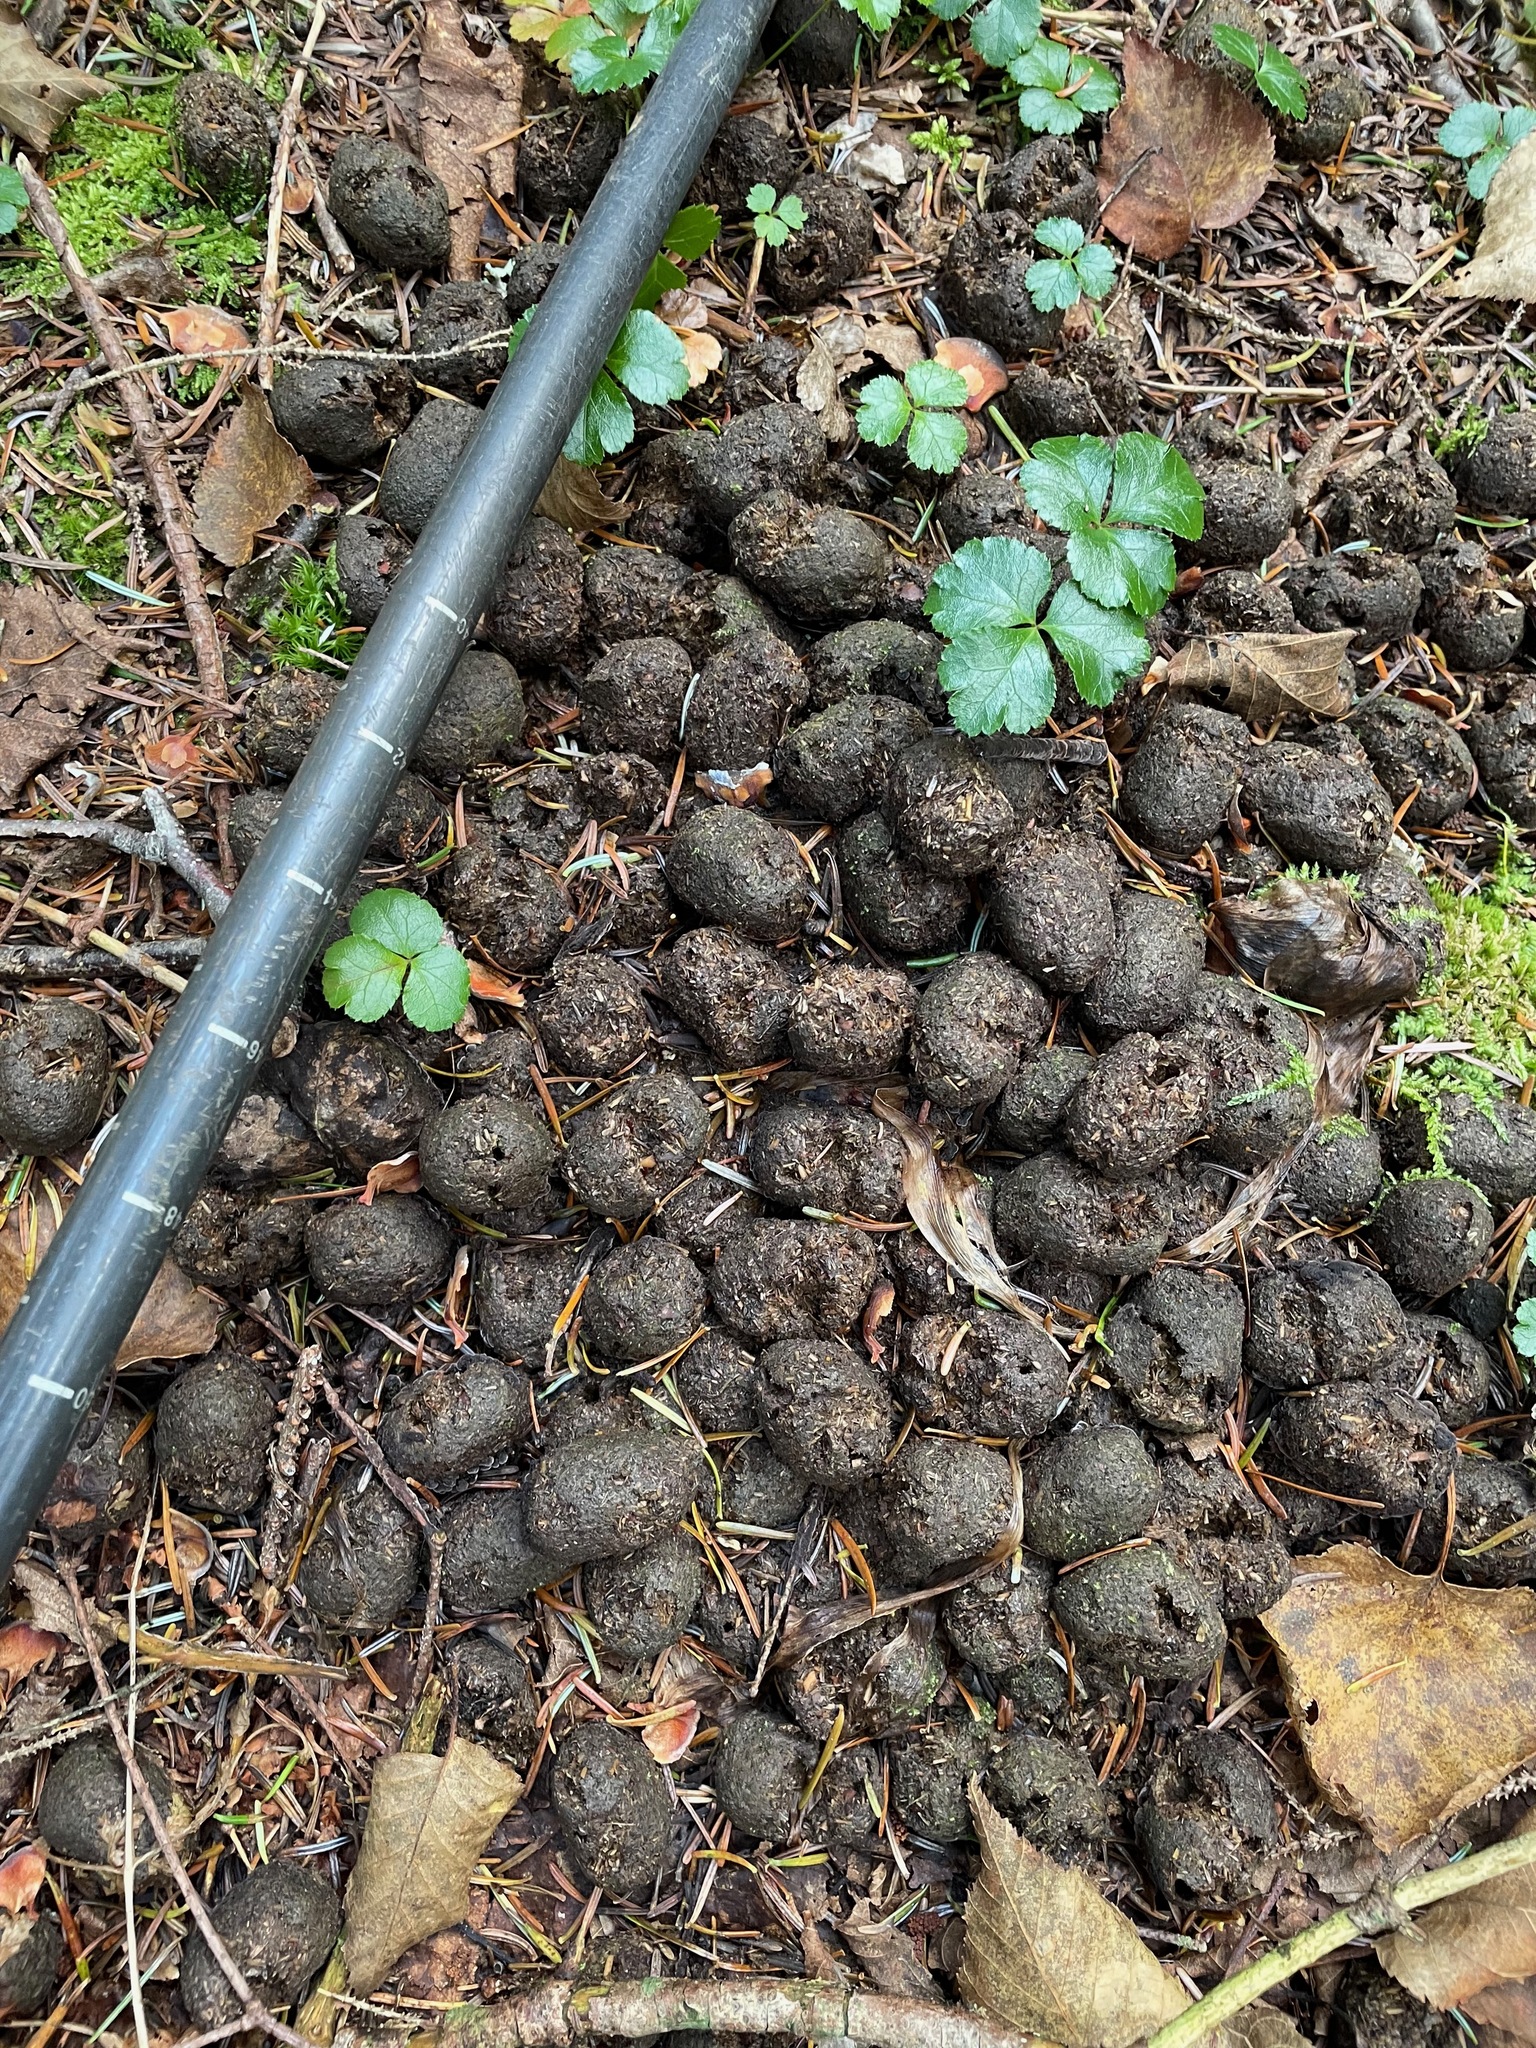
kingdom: Animalia
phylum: Chordata
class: Mammalia
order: Artiodactyla
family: Cervidae
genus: Alces
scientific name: Alces alces
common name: Moose
